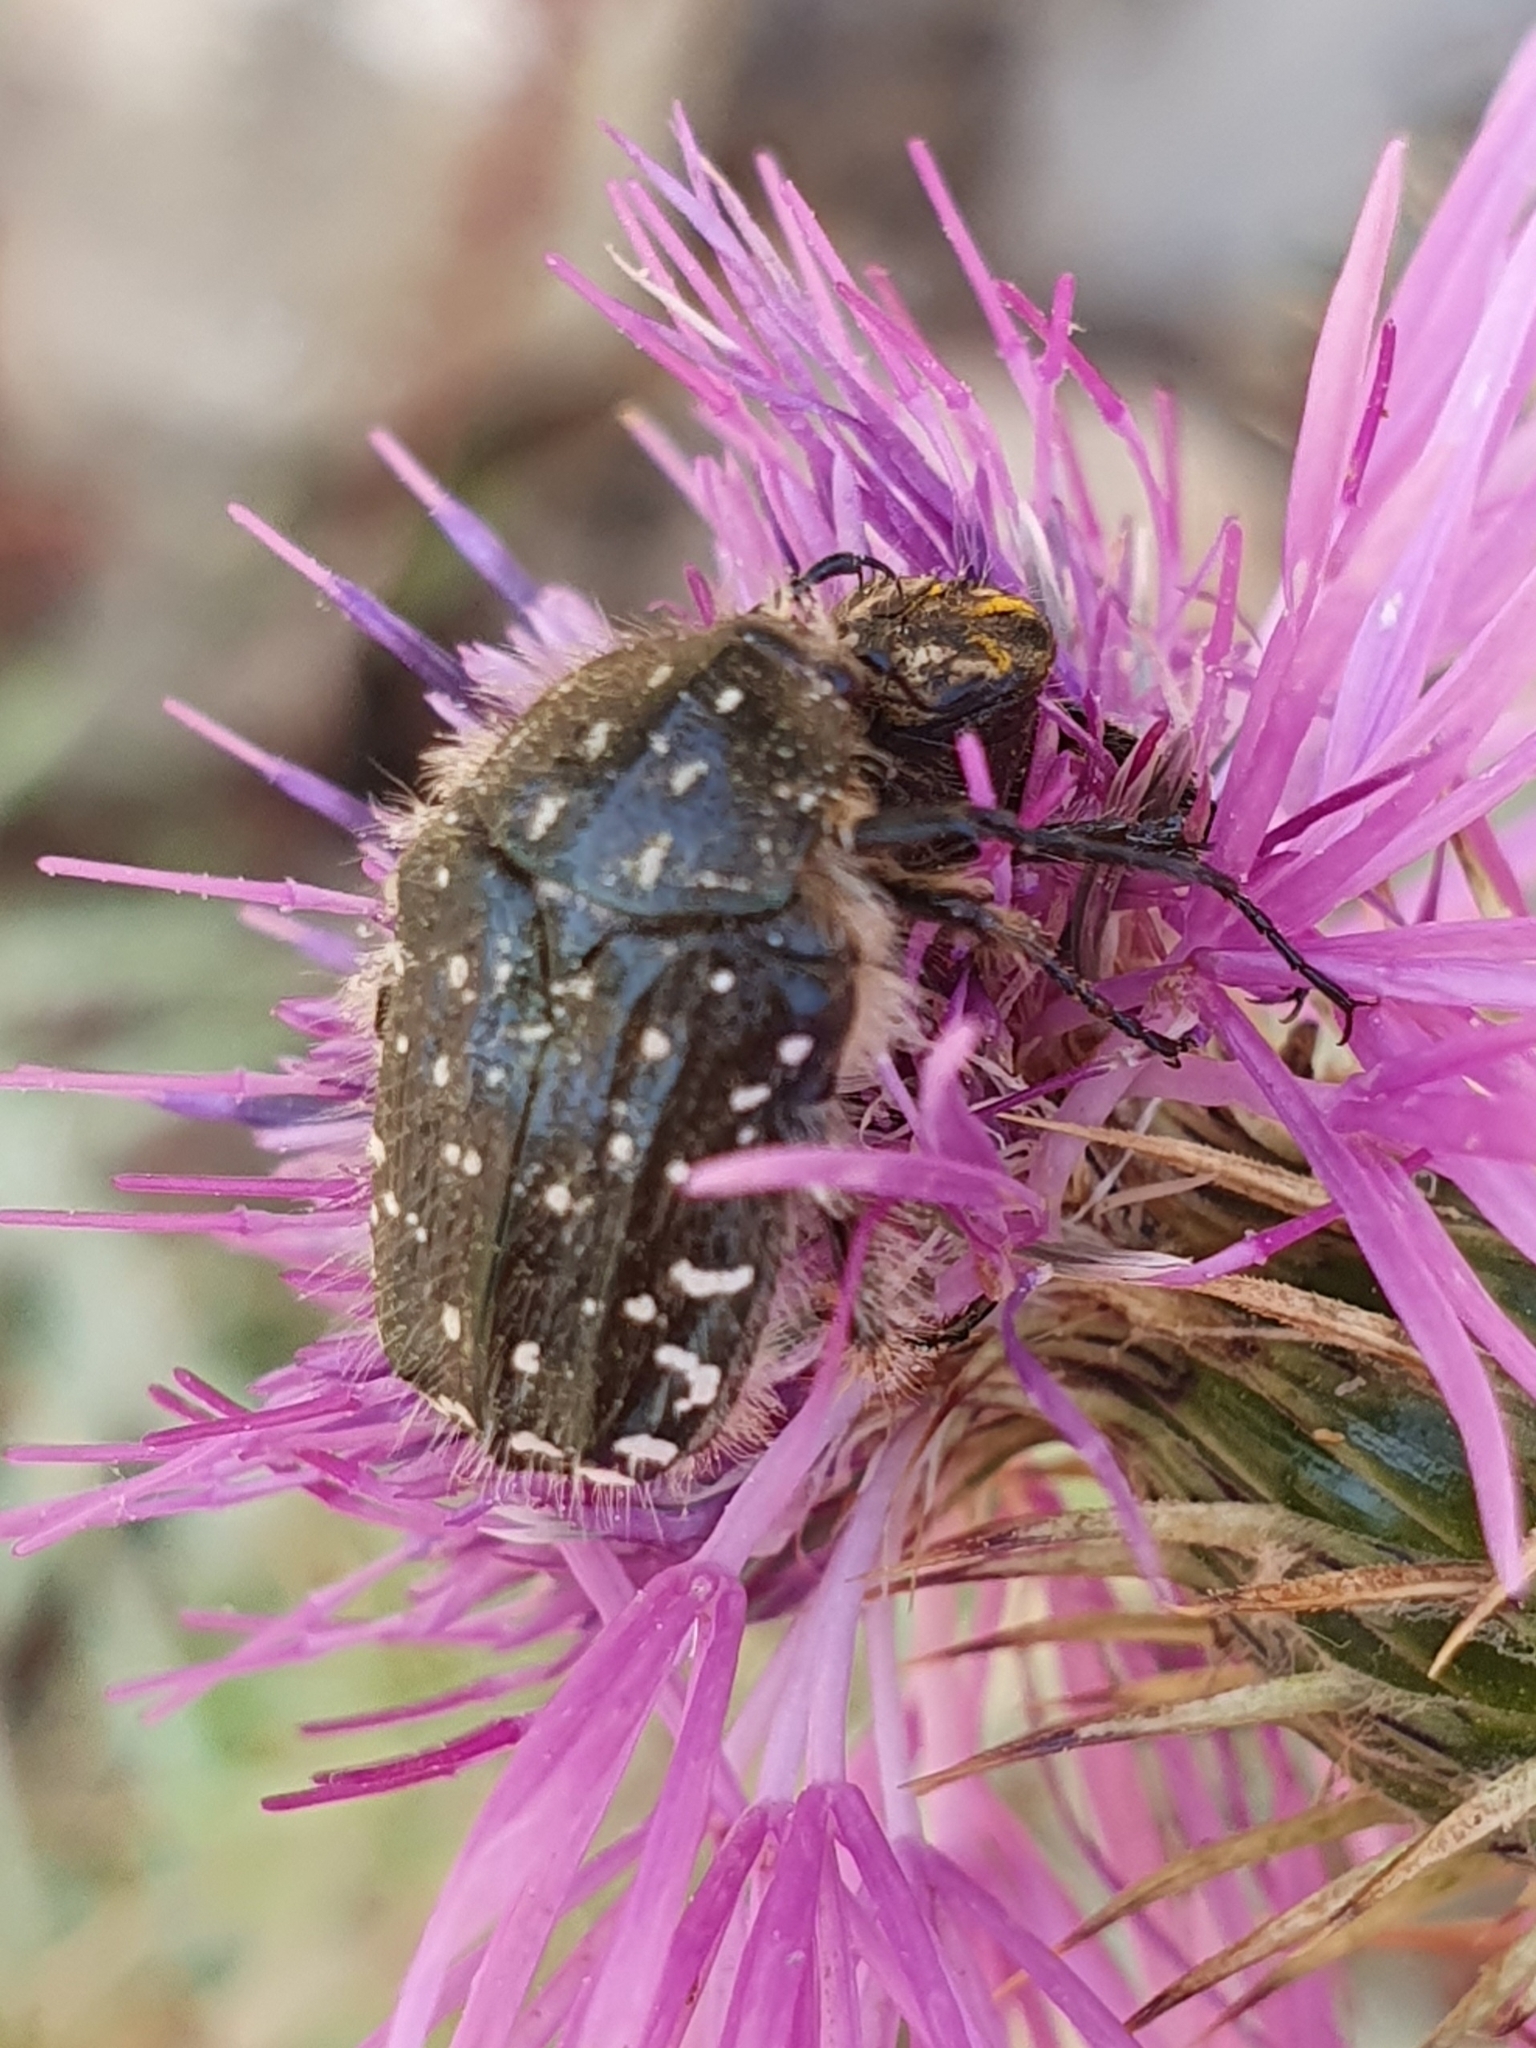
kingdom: Animalia
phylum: Arthropoda
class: Insecta
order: Coleoptera
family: Scarabaeidae
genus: Oxythyrea
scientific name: Oxythyrea funesta
